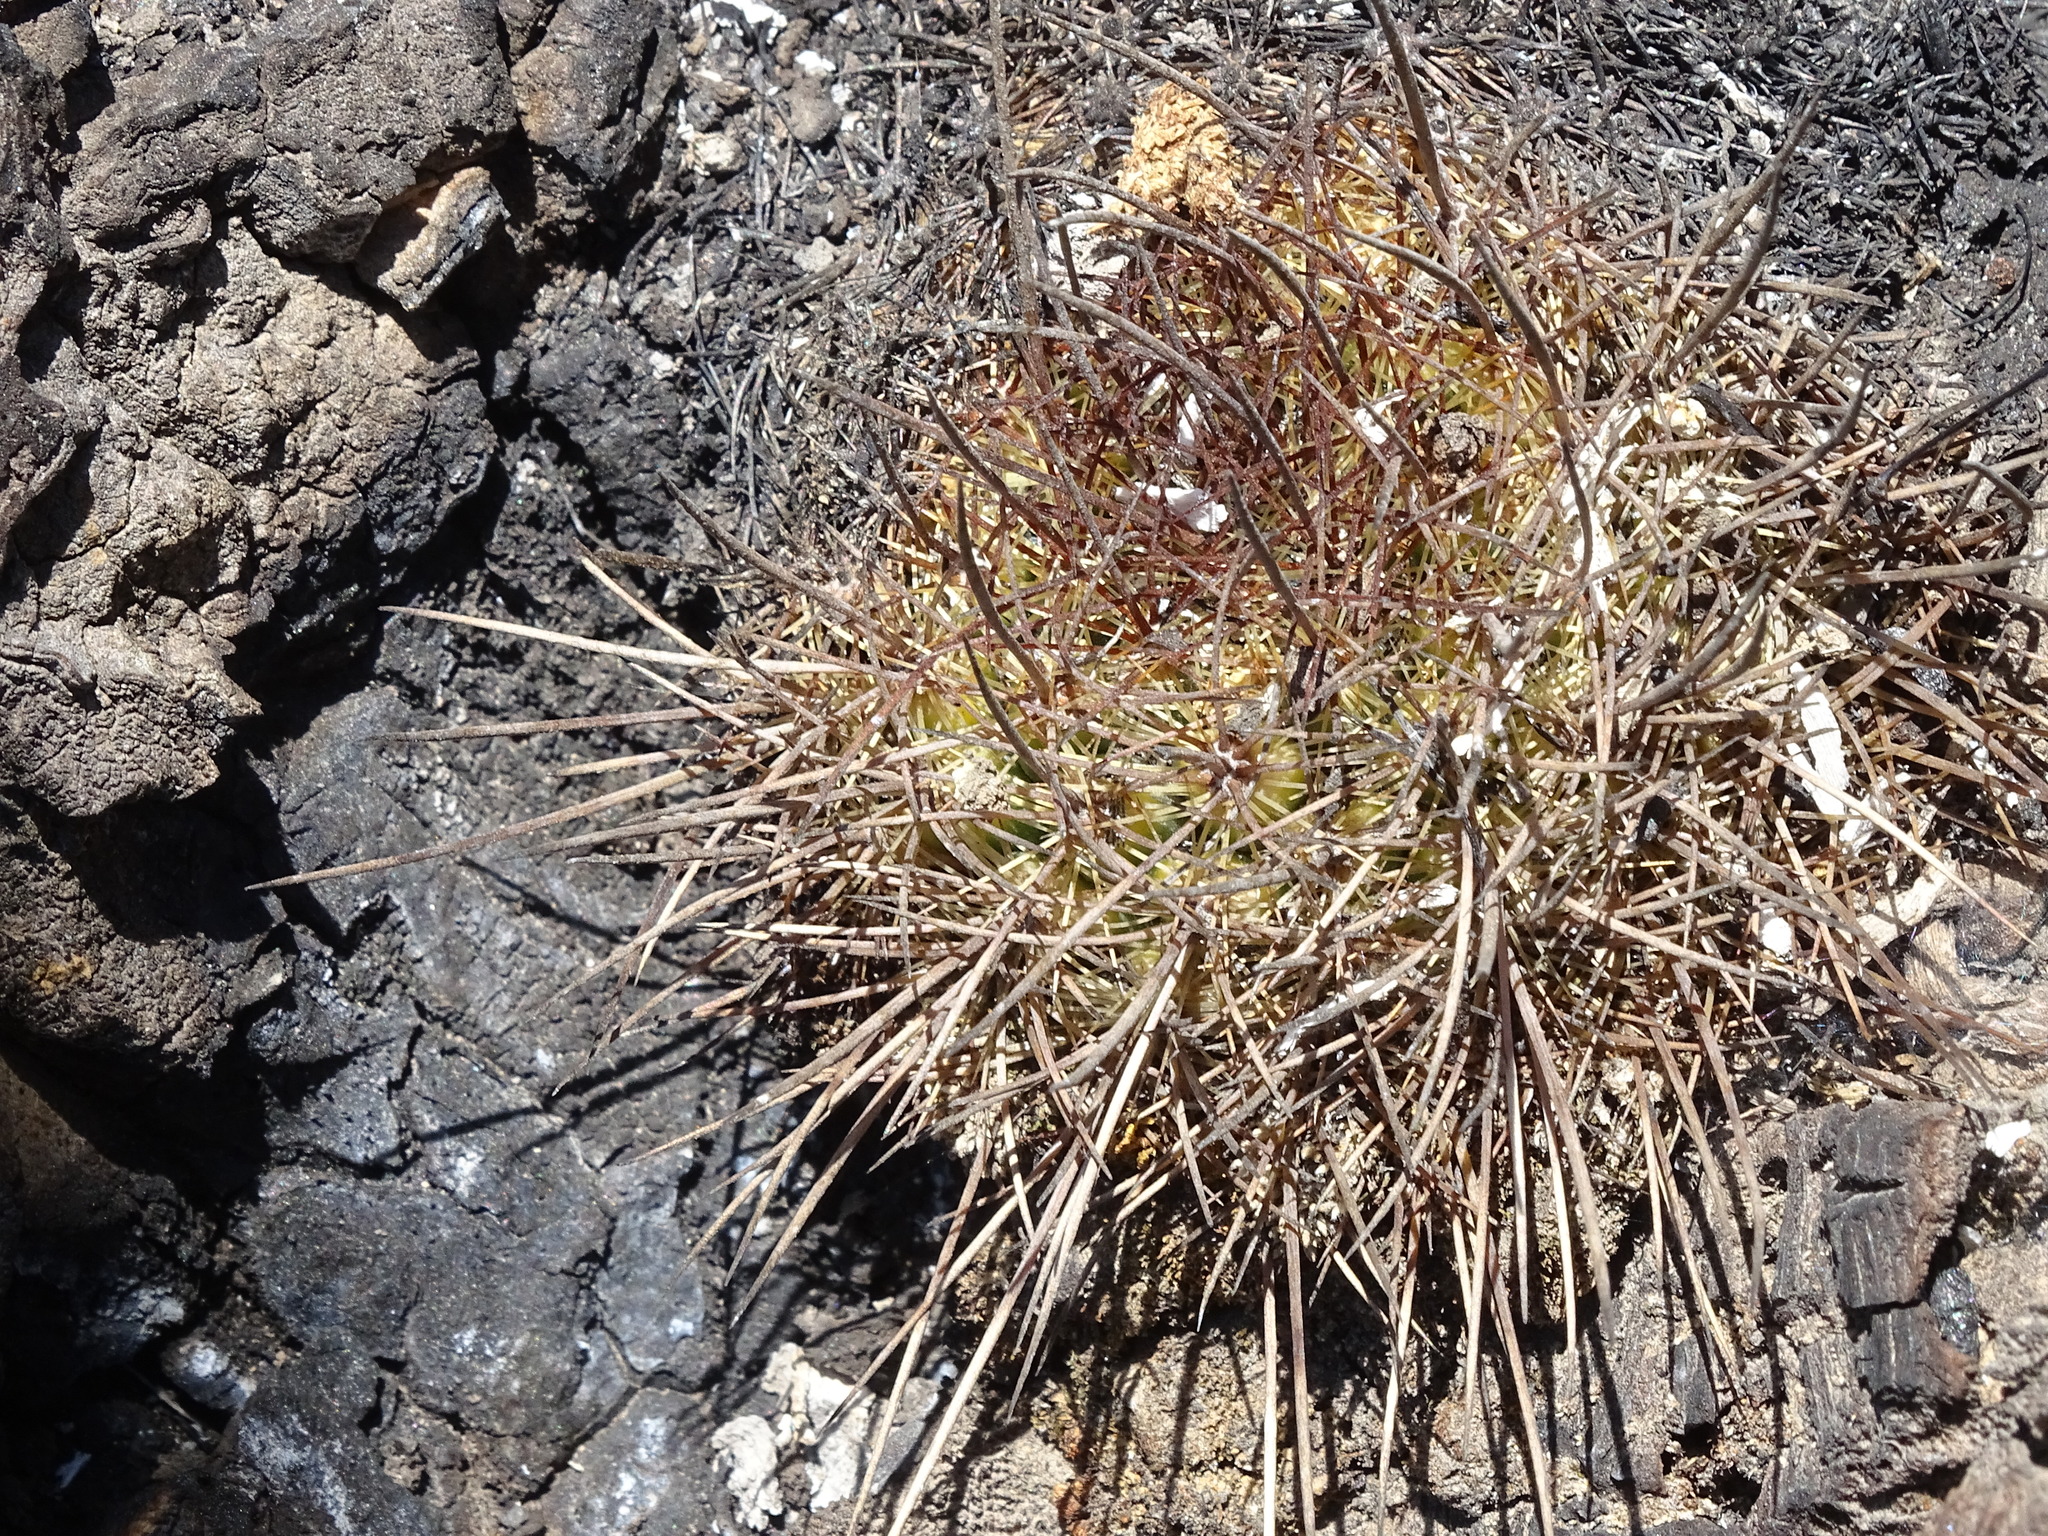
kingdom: Plantae
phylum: Tracheophyta
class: Magnoliopsida
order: Caryophyllales
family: Cactaceae
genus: Mammillaria
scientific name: Mammillaria discolor
